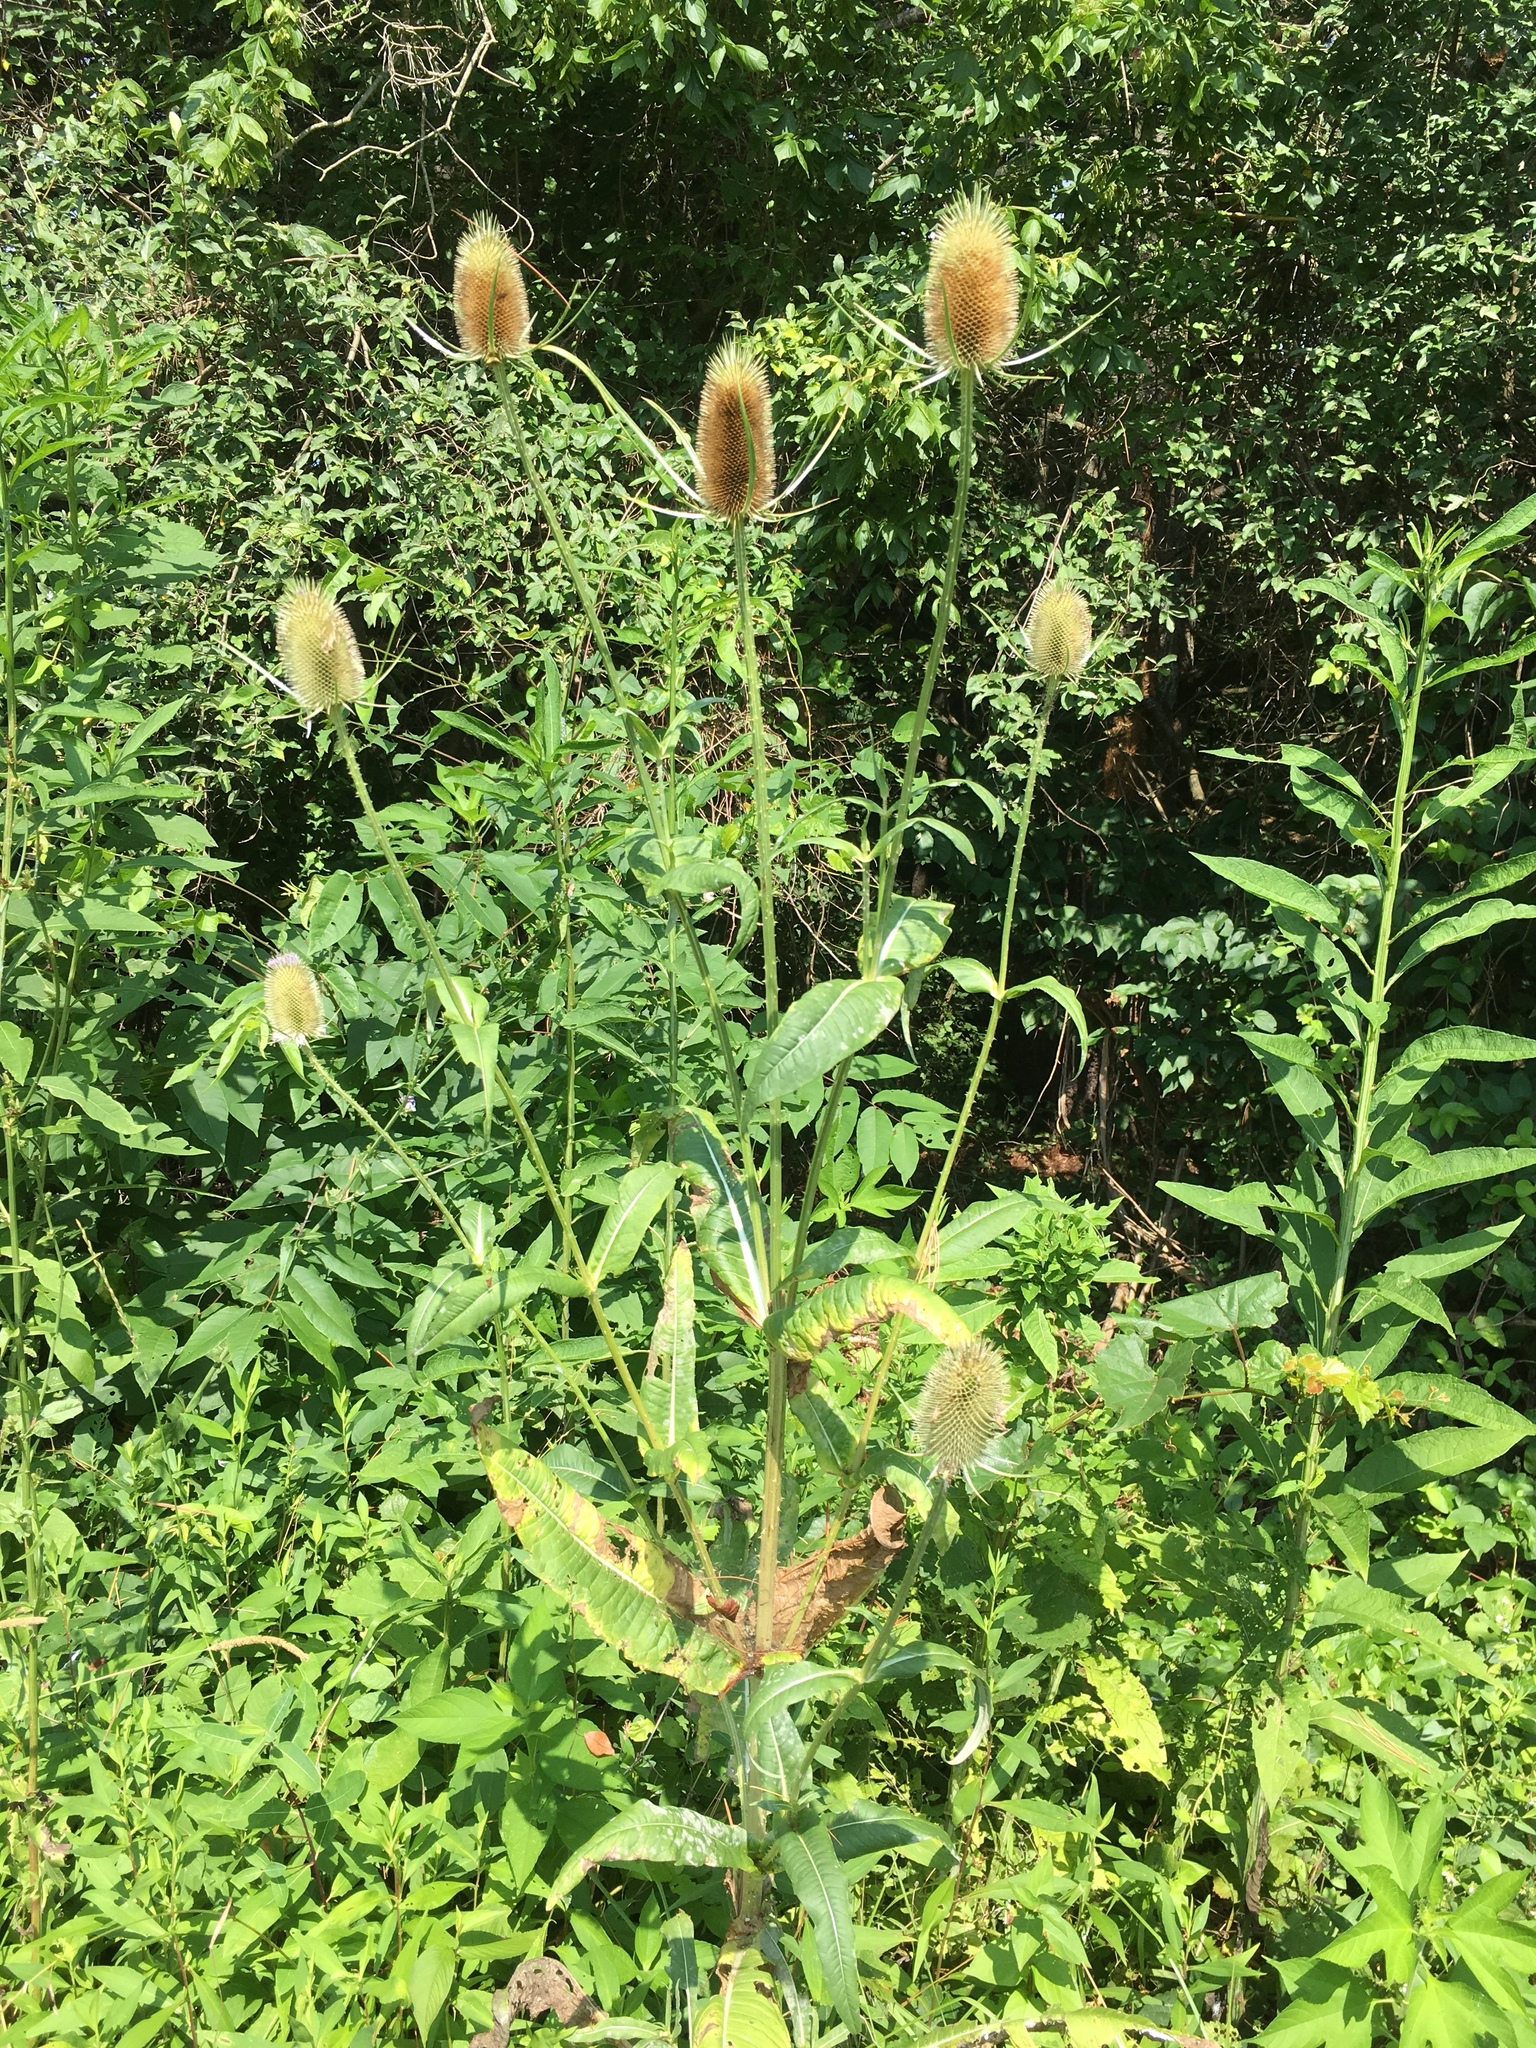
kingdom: Plantae
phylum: Tracheophyta
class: Magnoliopsida
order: Dipsacales
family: Caprifoliaceae
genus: Dipsacus
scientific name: Dipsacus fullonum
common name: Teasel
